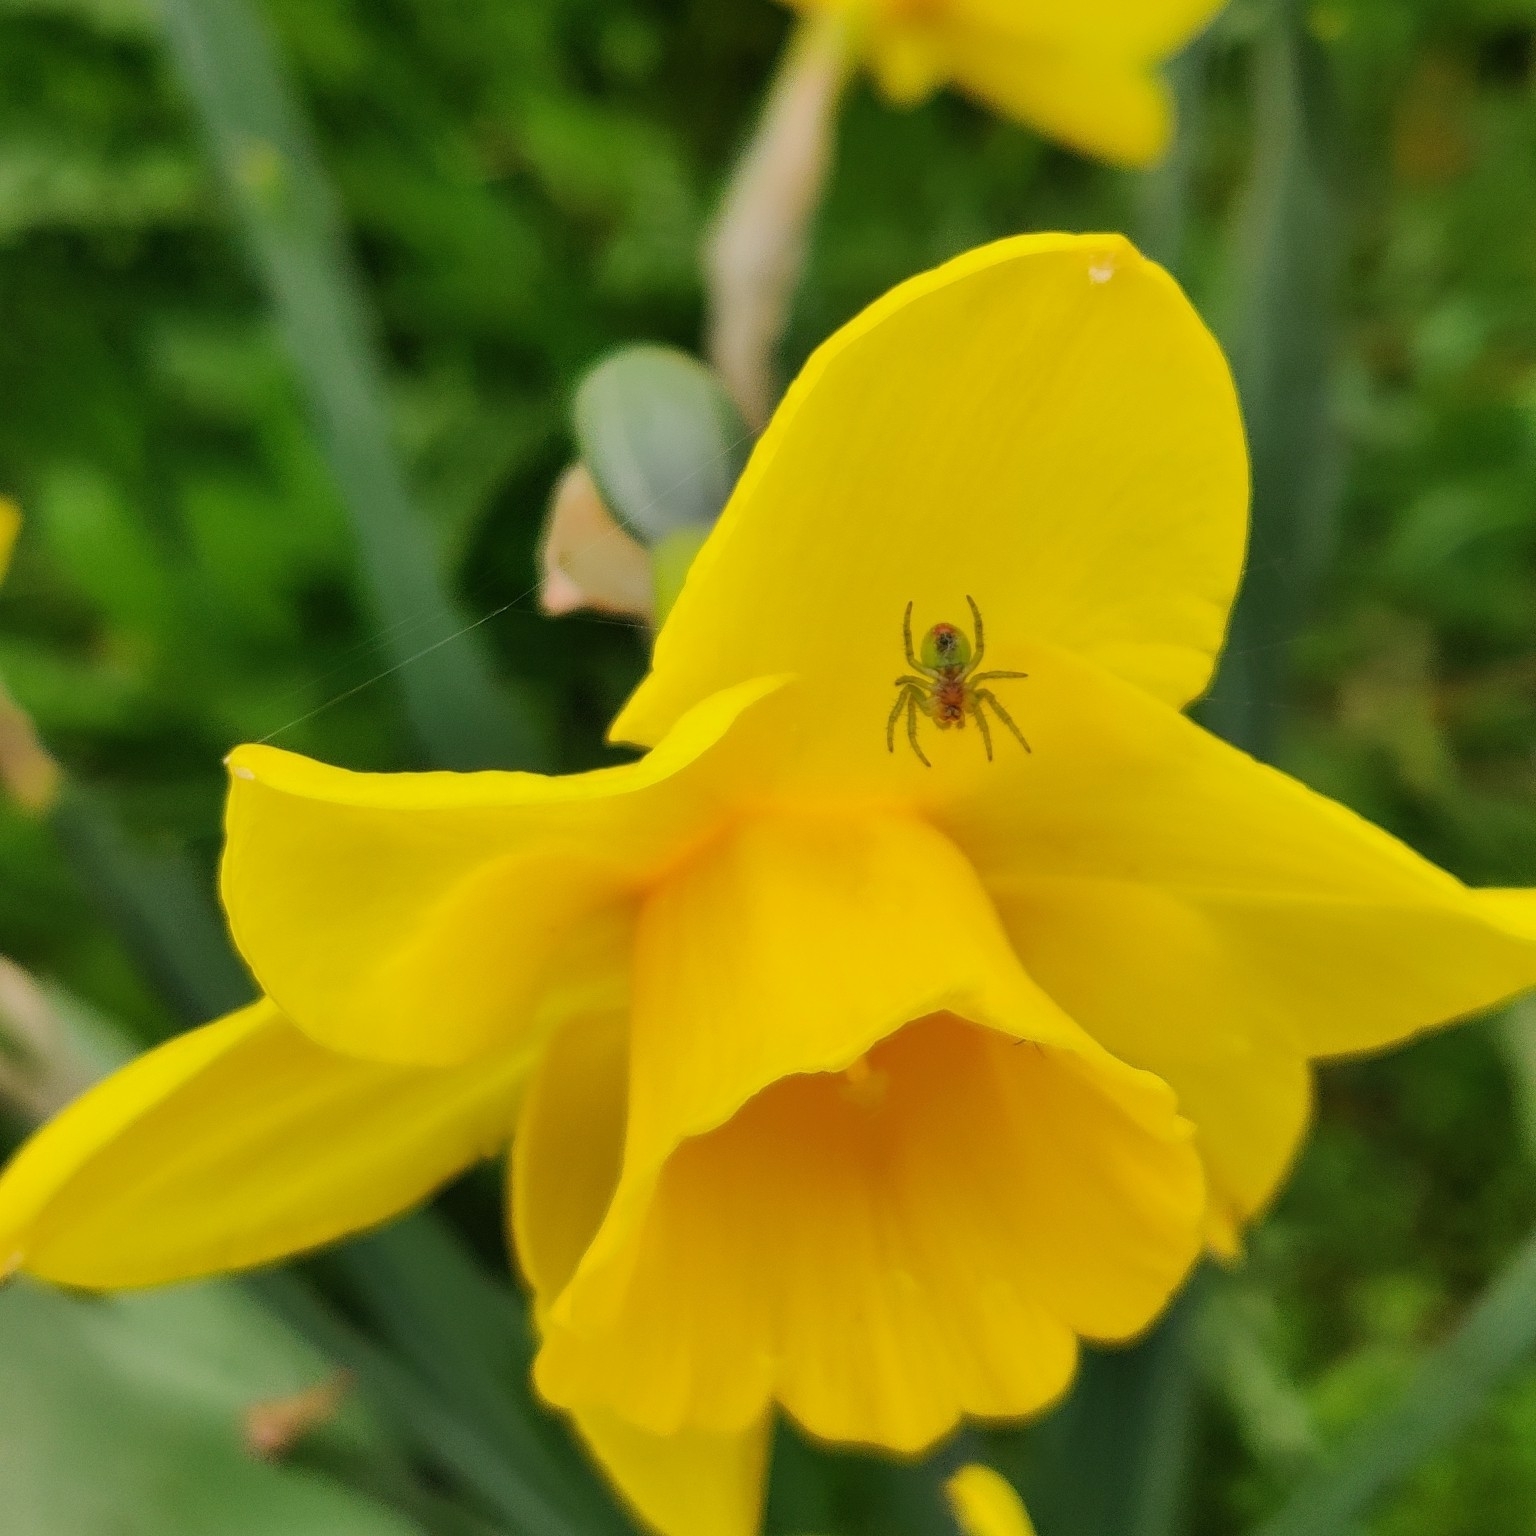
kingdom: Animalia
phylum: Arthropoda
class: Arachnida
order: Araneae
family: Araneidae
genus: Araniella
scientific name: Araniella
